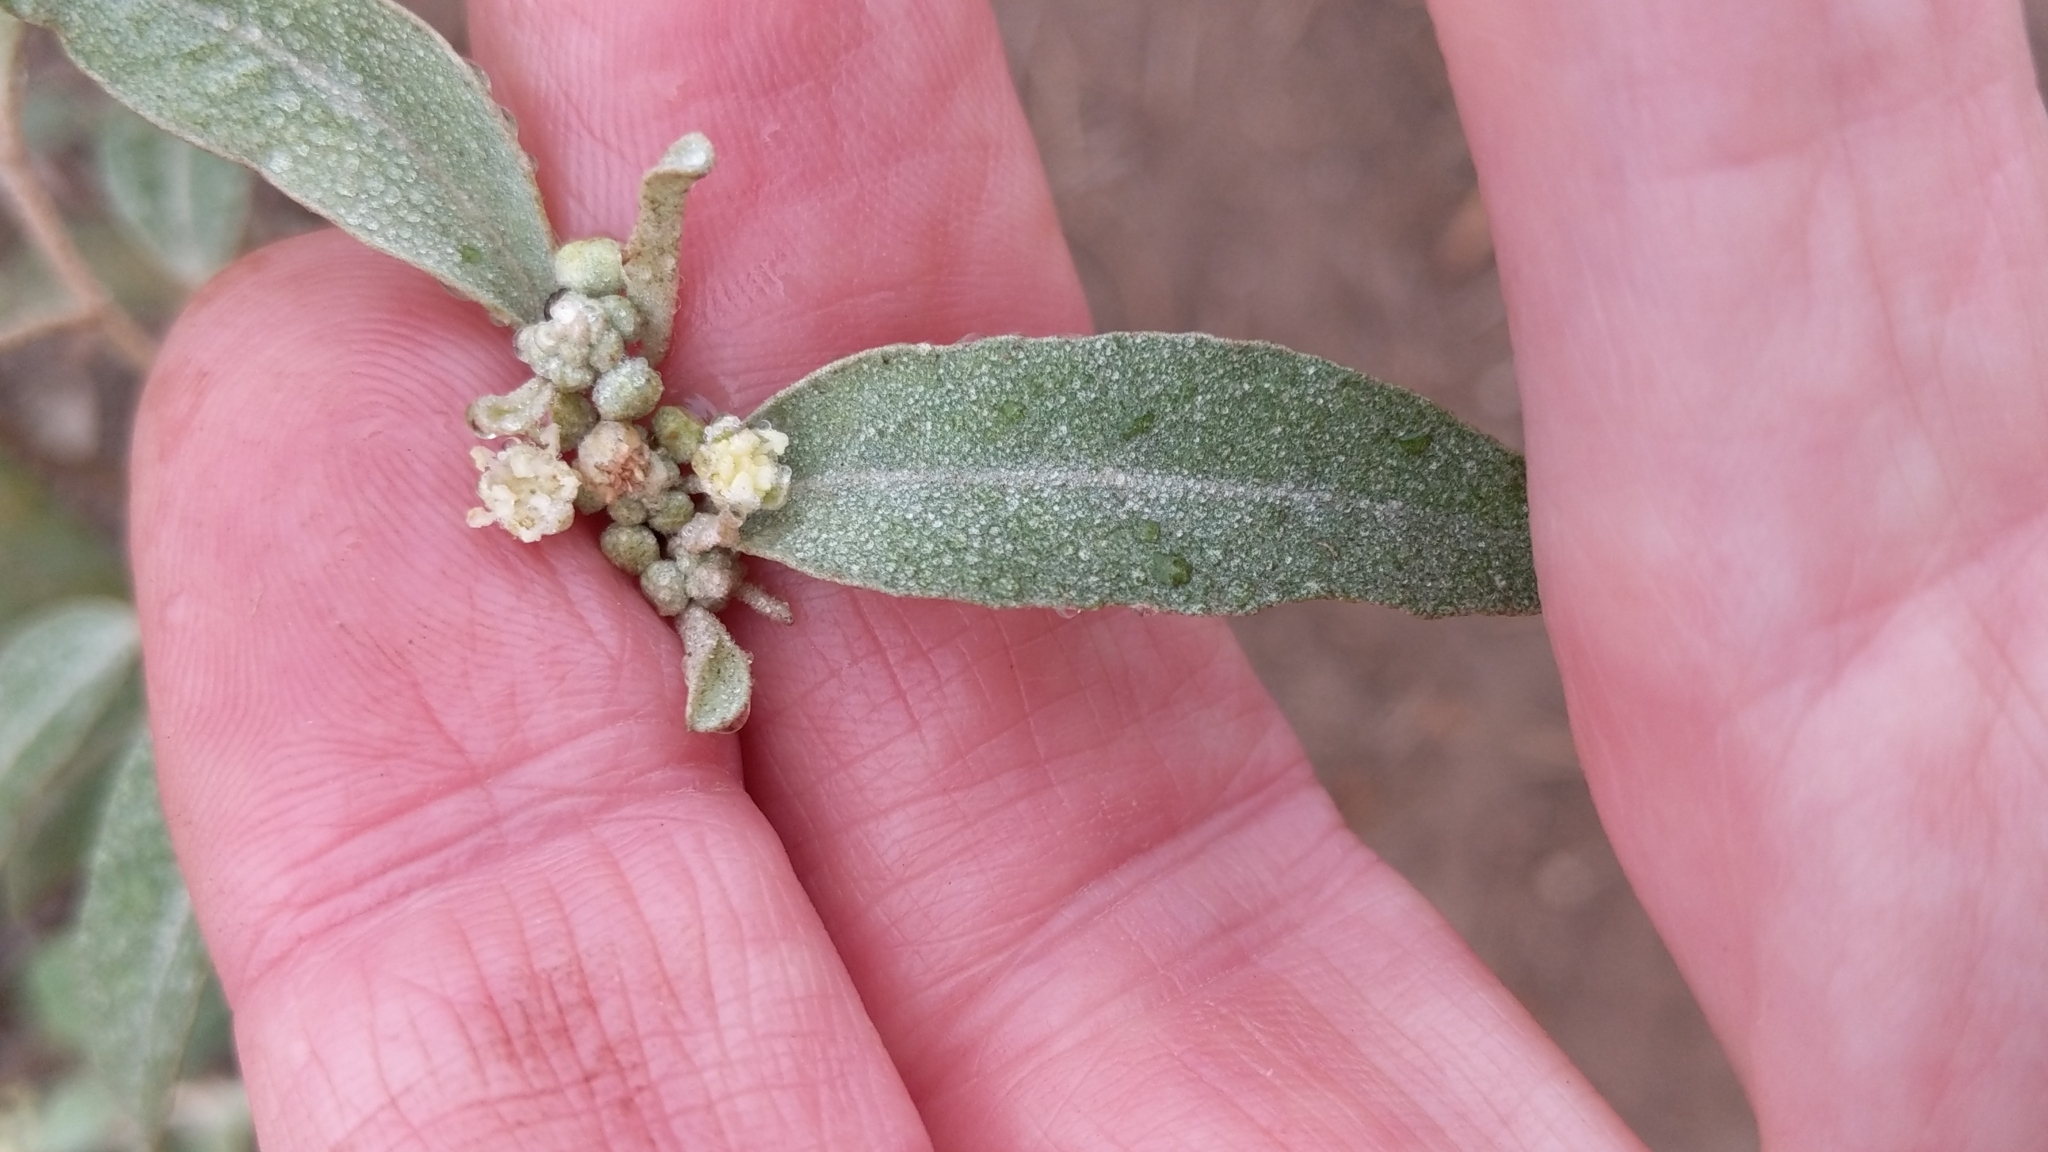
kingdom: Plantae
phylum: Tracheophyta
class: Magnoliopsida
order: Malpighiales
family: Euphorbiaceae
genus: Croton
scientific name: Croton californicus
